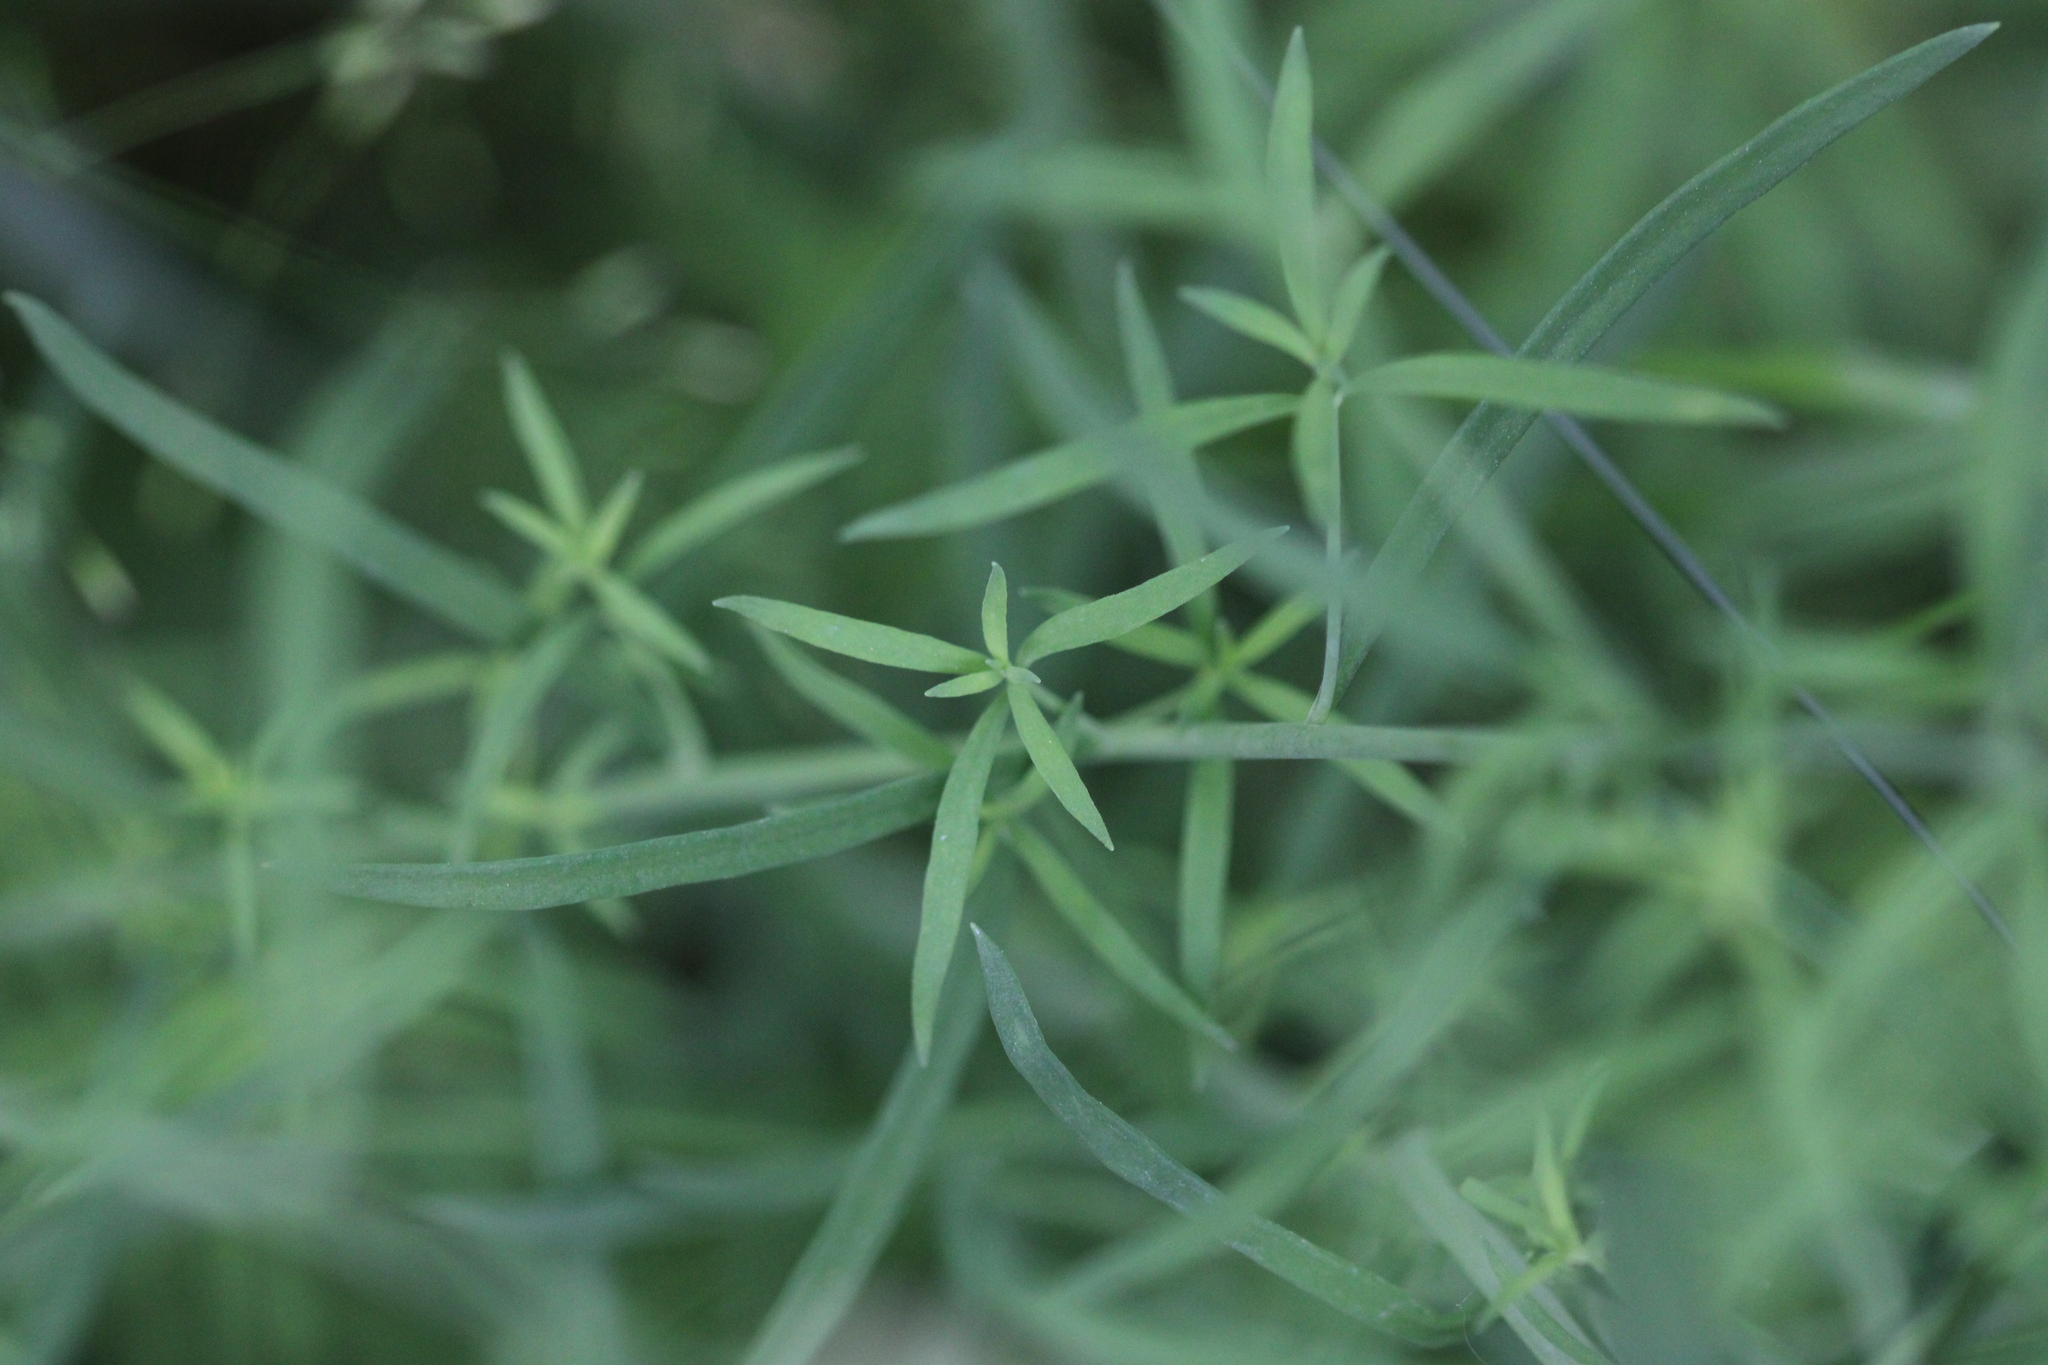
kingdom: Plantae
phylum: Tracheophyta
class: Magnoliopsida
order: Lamiales
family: Plantaginaceae
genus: Linaria
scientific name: Linaria repens
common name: Pale toadflax
